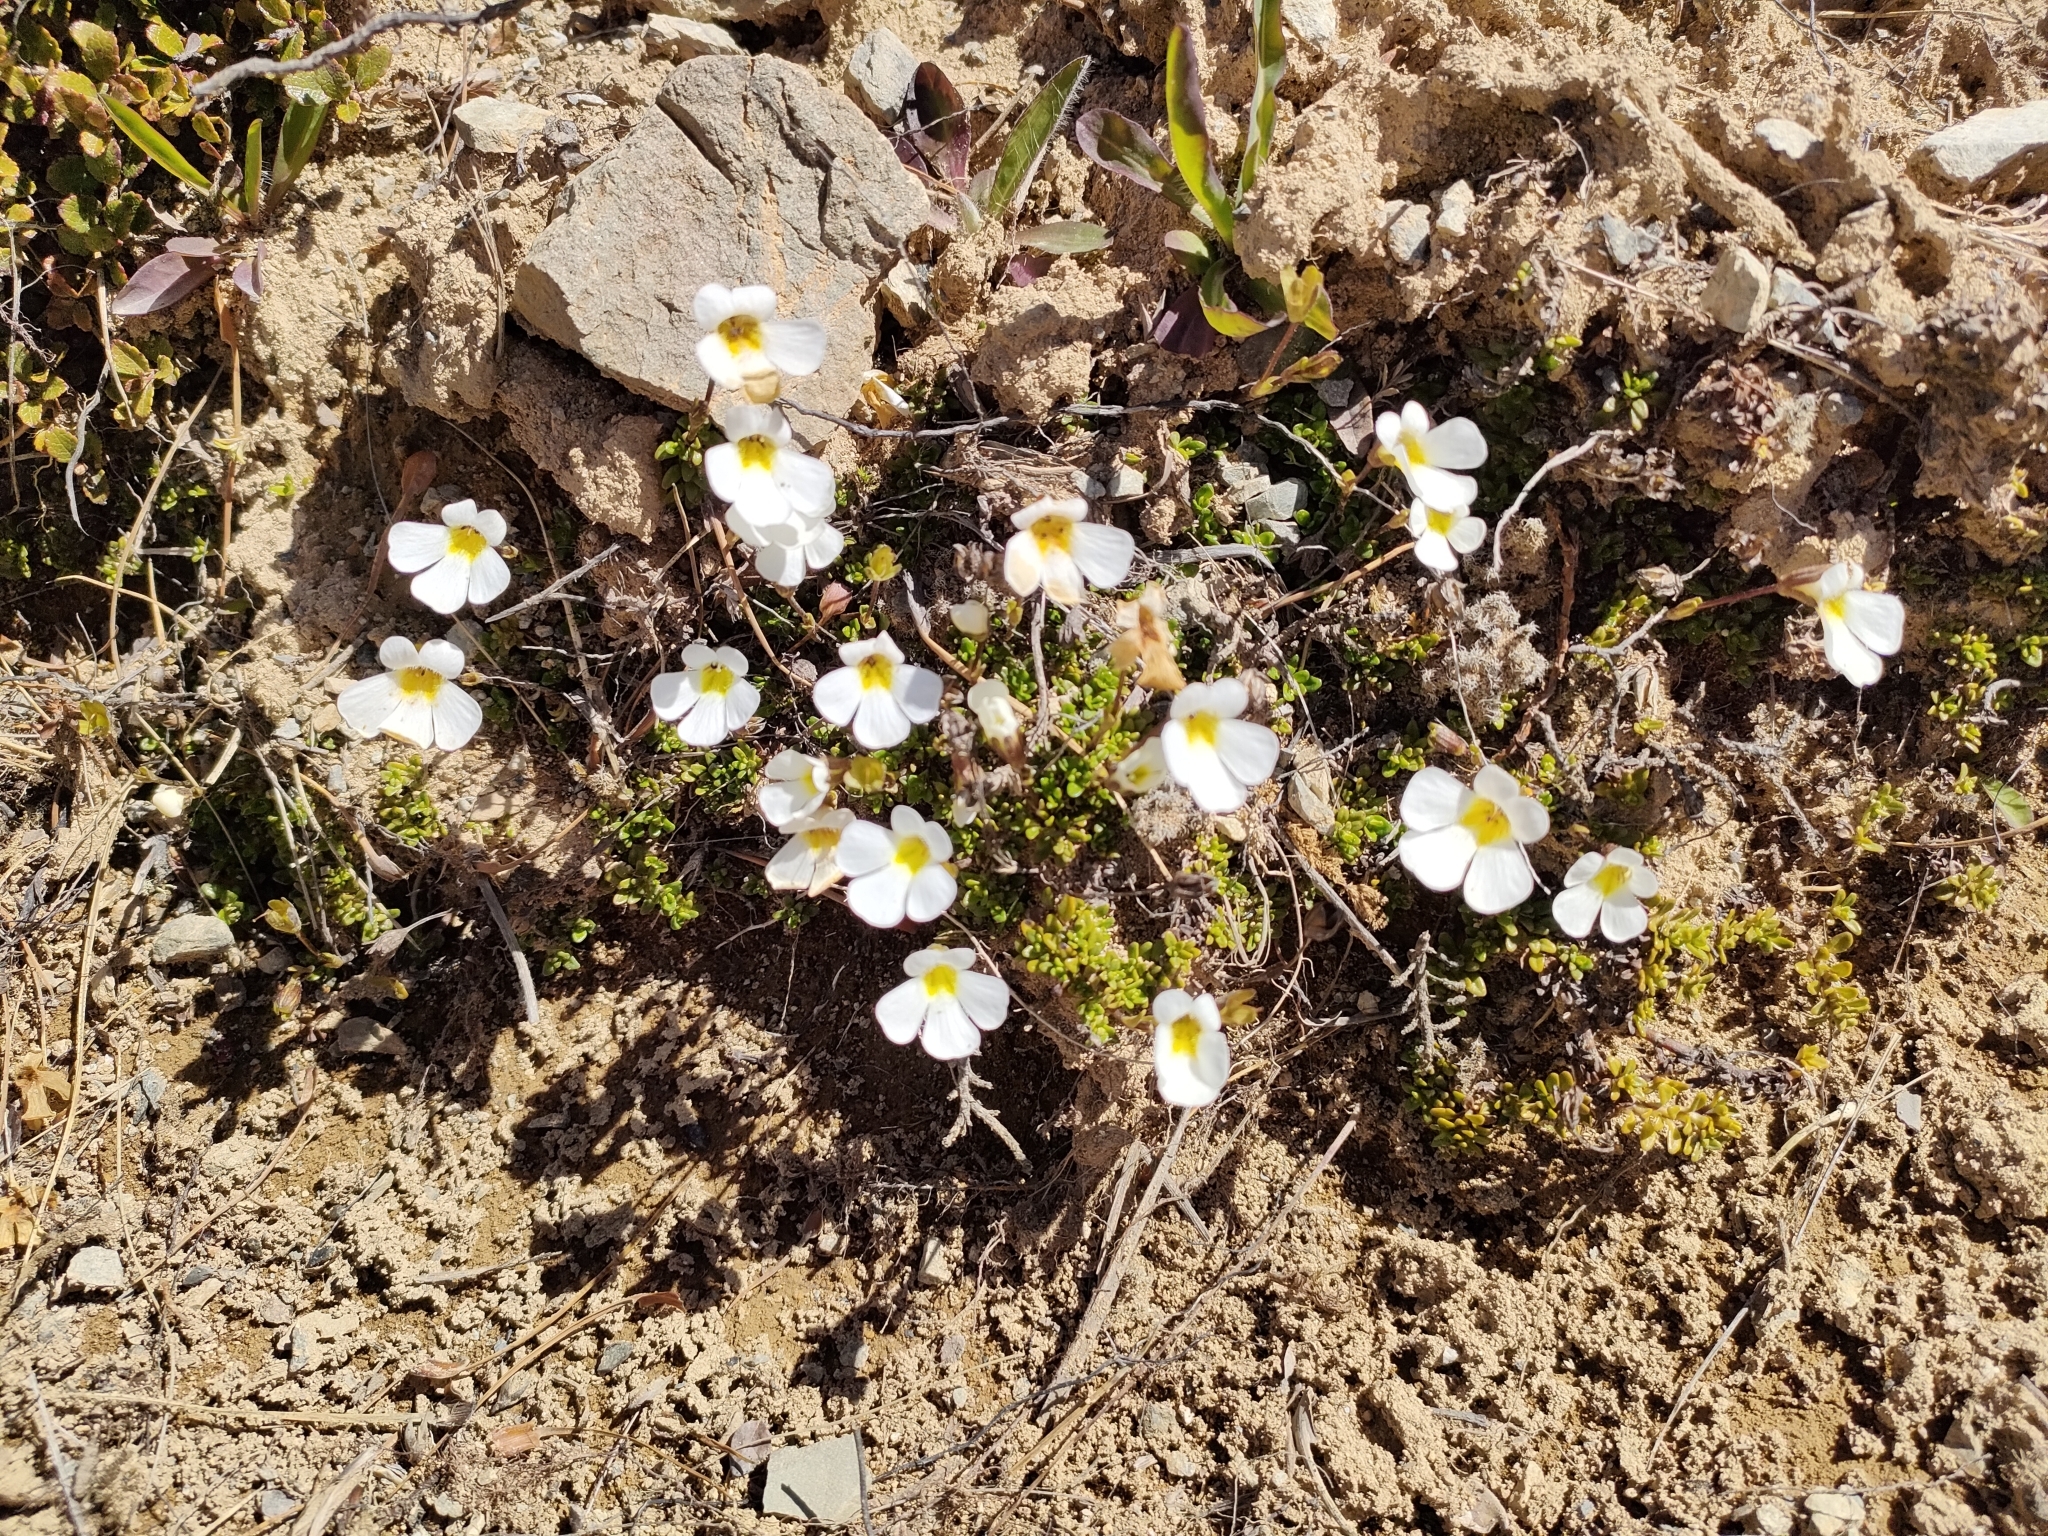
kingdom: Plantae
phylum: Tracheophyta
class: Magnoliopsida
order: Lamiales
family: Plantaginaceae
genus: Ourisia
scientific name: Ourisia caespitosa
